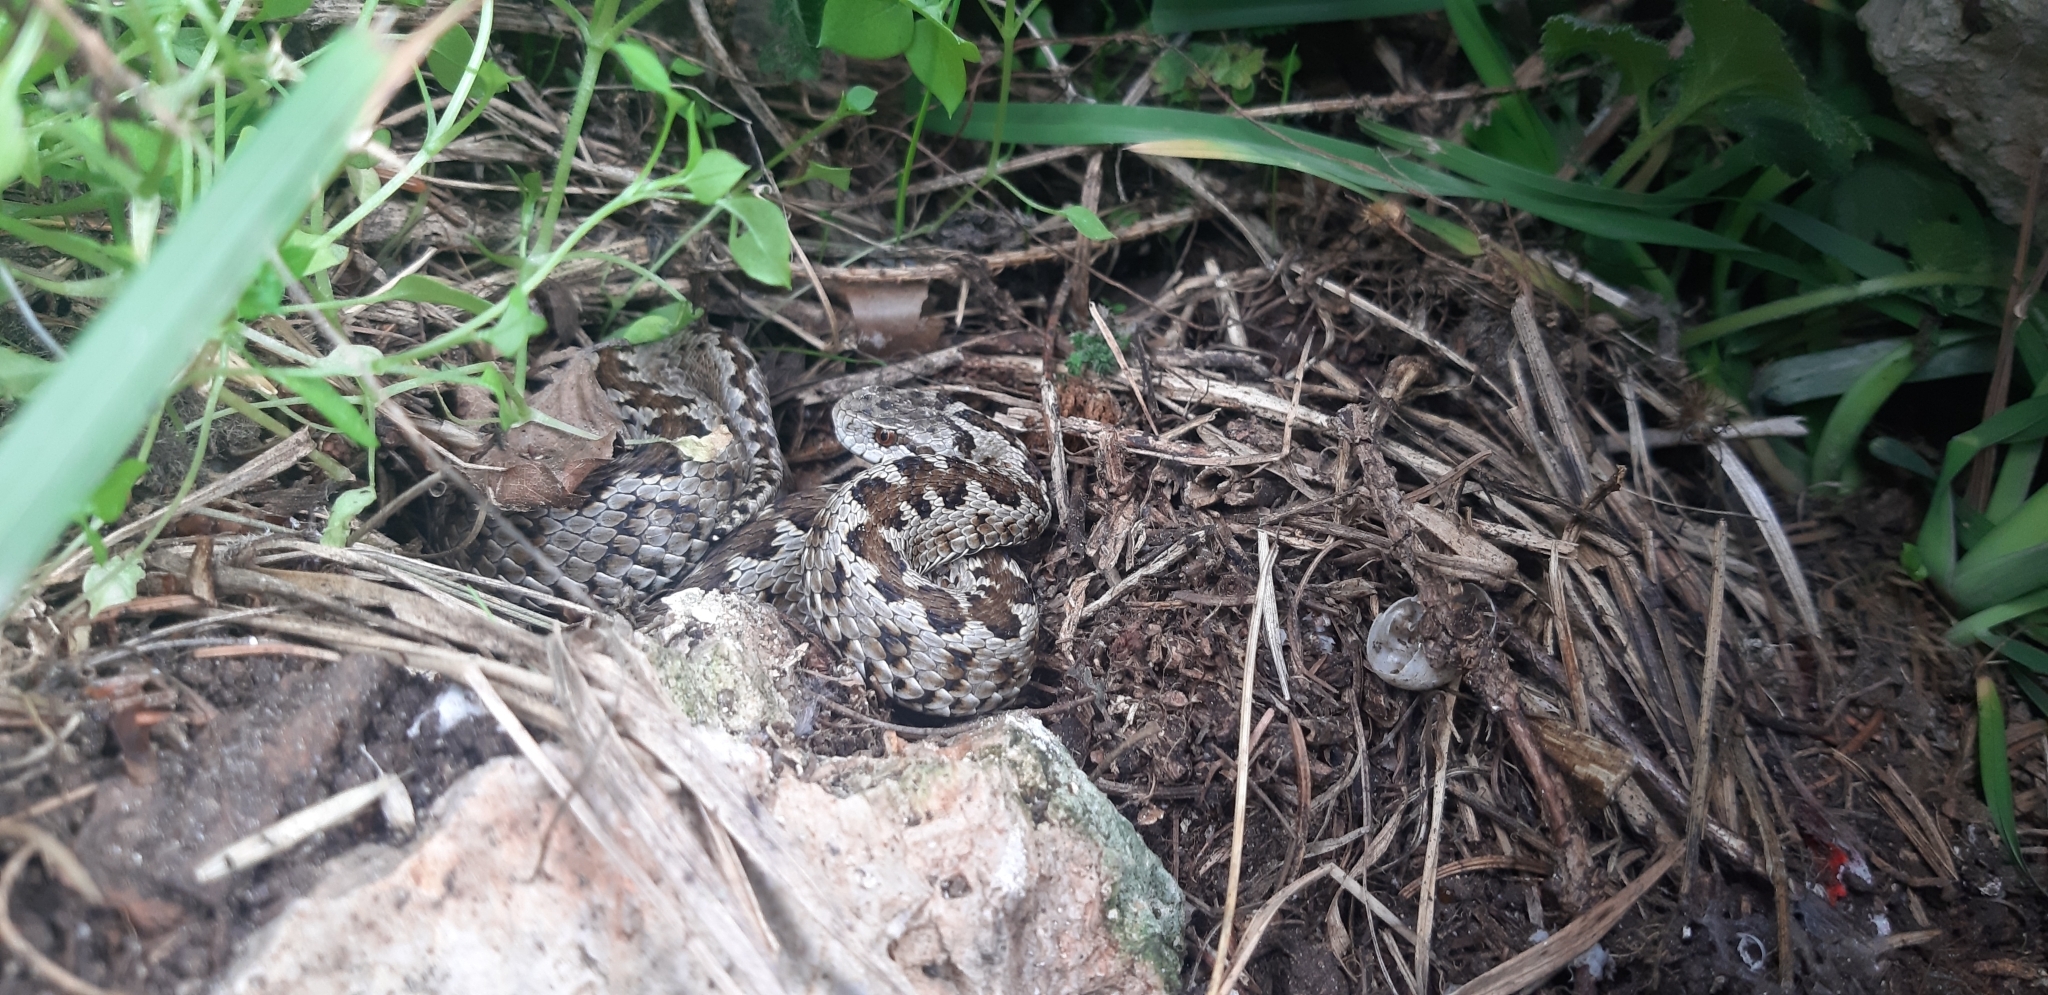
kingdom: Animalia
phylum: Chordata
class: Squamata
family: Viperidae
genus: Vipera
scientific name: Vipera ursinii
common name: Meadow viper
